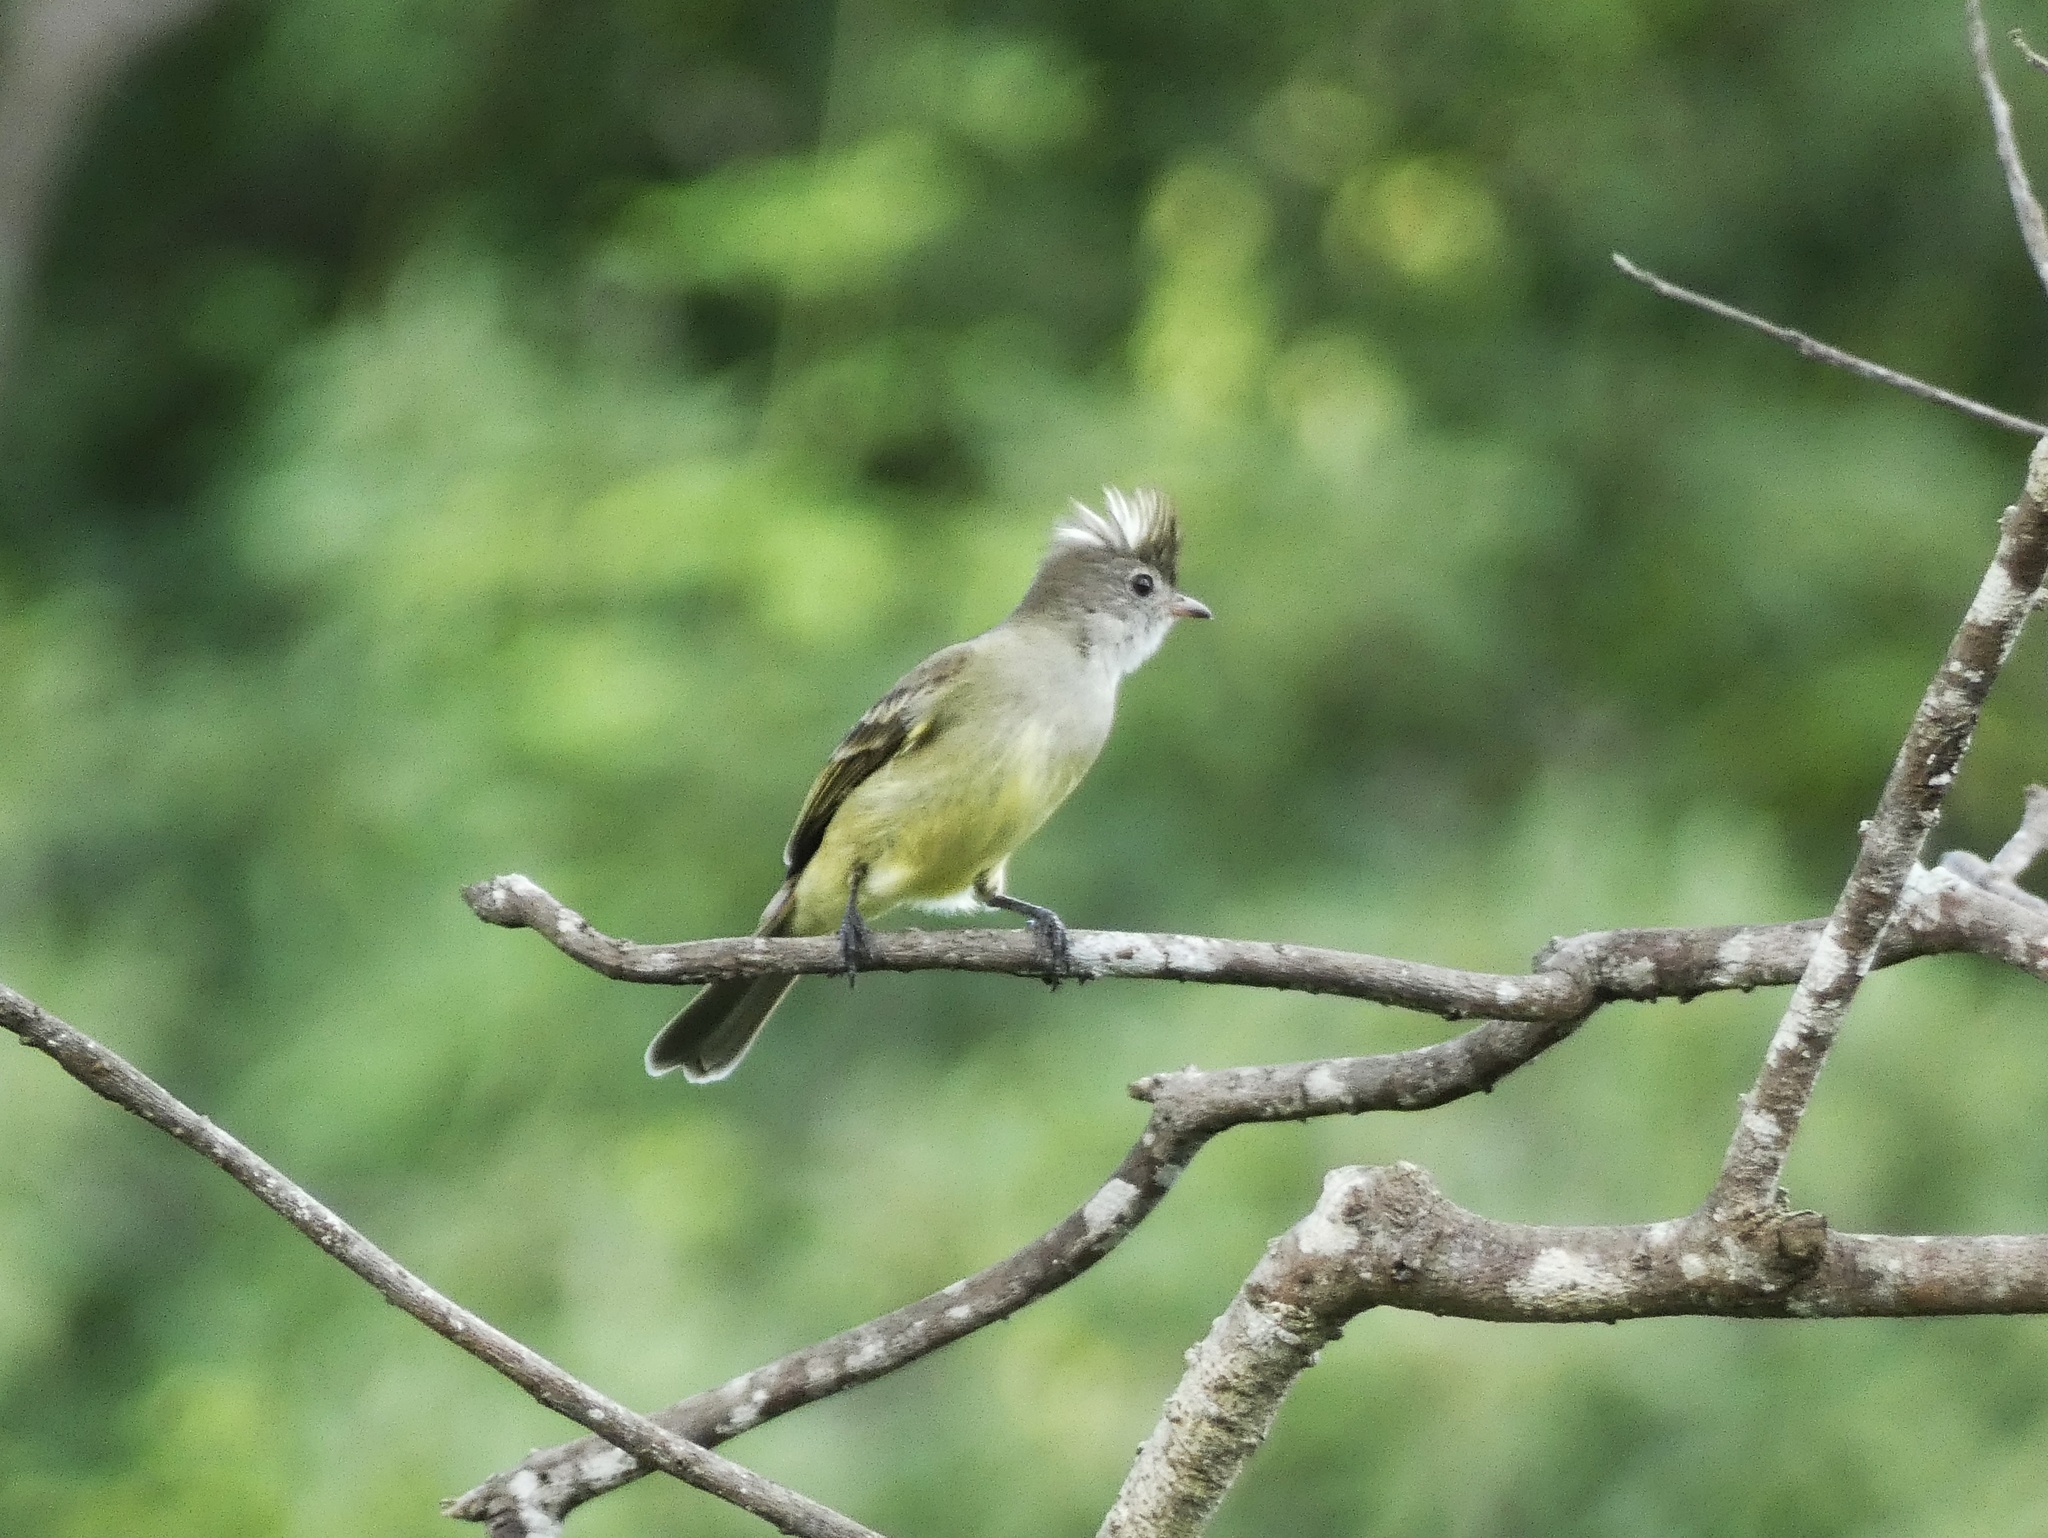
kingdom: Animalia
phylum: Chordata
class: Aves
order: Passeriformes
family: Tyrannidae
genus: Elaenia
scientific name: Elaenia flavogaster
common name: Yellow-bellied elaenia
